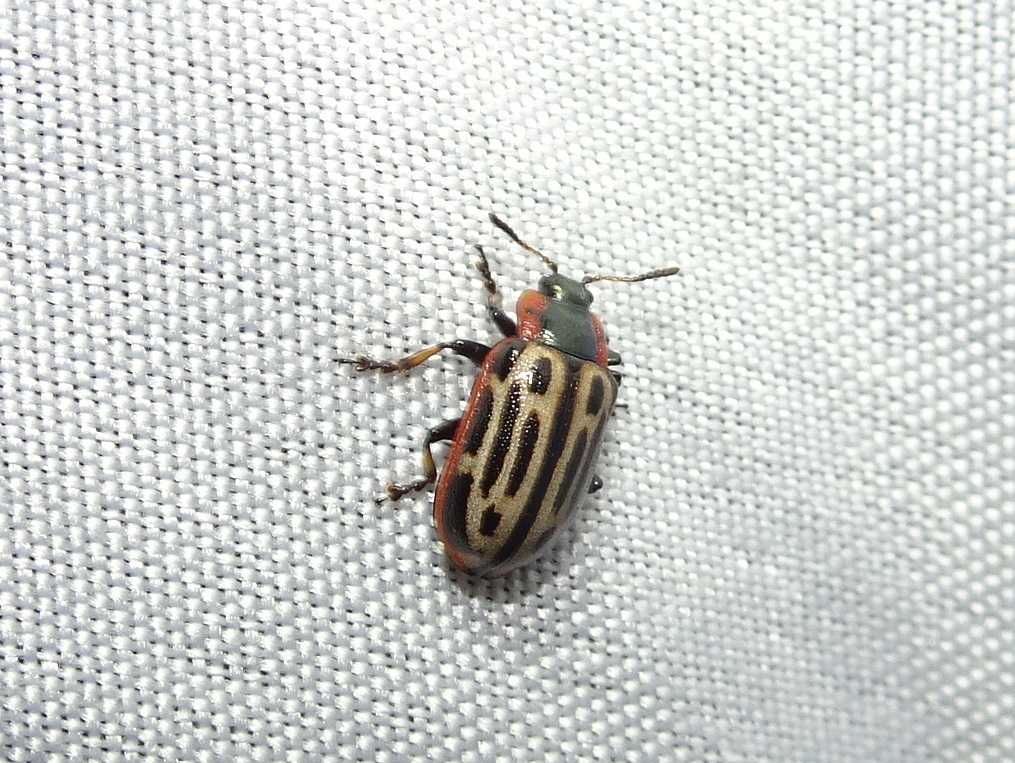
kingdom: Animalia
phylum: Arthropoda
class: Insecta
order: Coleoptera
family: Chrysomelidae
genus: Aethiopocassis
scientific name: Aethiopocassis scripta
